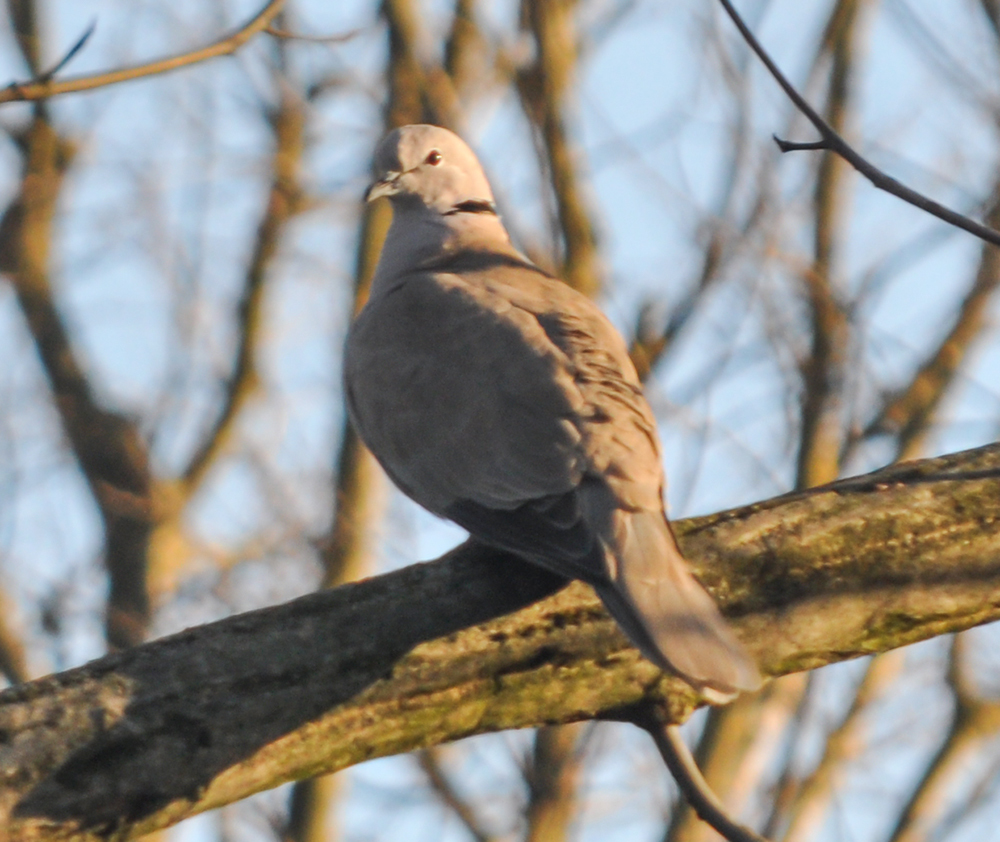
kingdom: Animalia
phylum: Chordata
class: Aves
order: Columbiformes
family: Columbidae
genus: Streptopelia
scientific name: Streptopelia decaocto
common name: Eurasian collared dove
